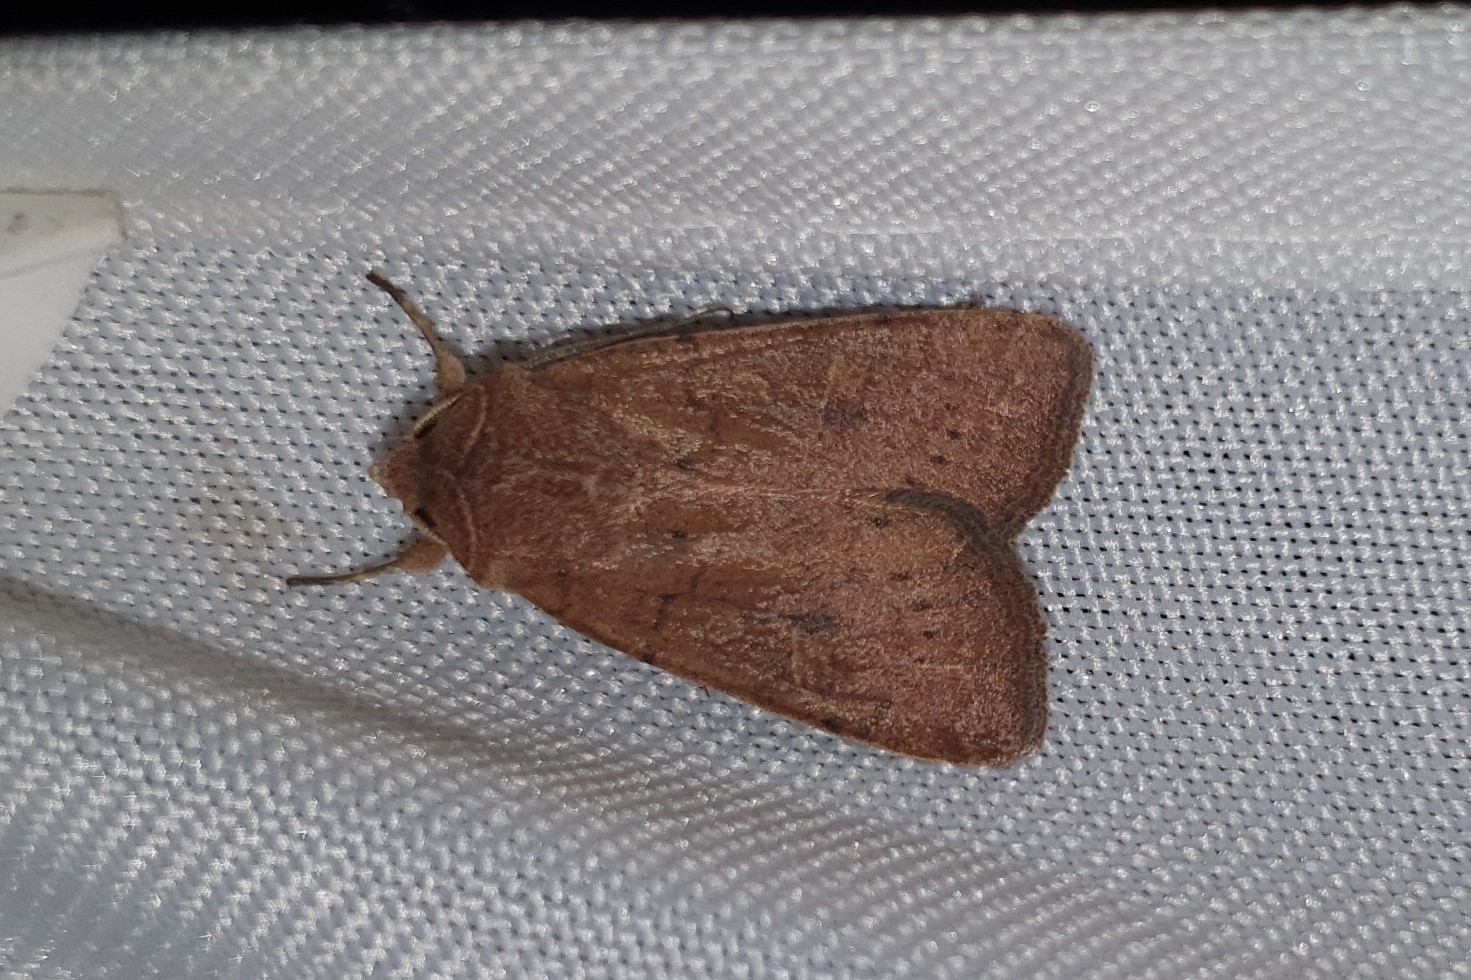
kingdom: Animalia
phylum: Arthropoda
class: Insecta
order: Lepidoptera
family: Noctuidae
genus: Xestia
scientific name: Xestia xanthographa
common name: Square-spot rustic
